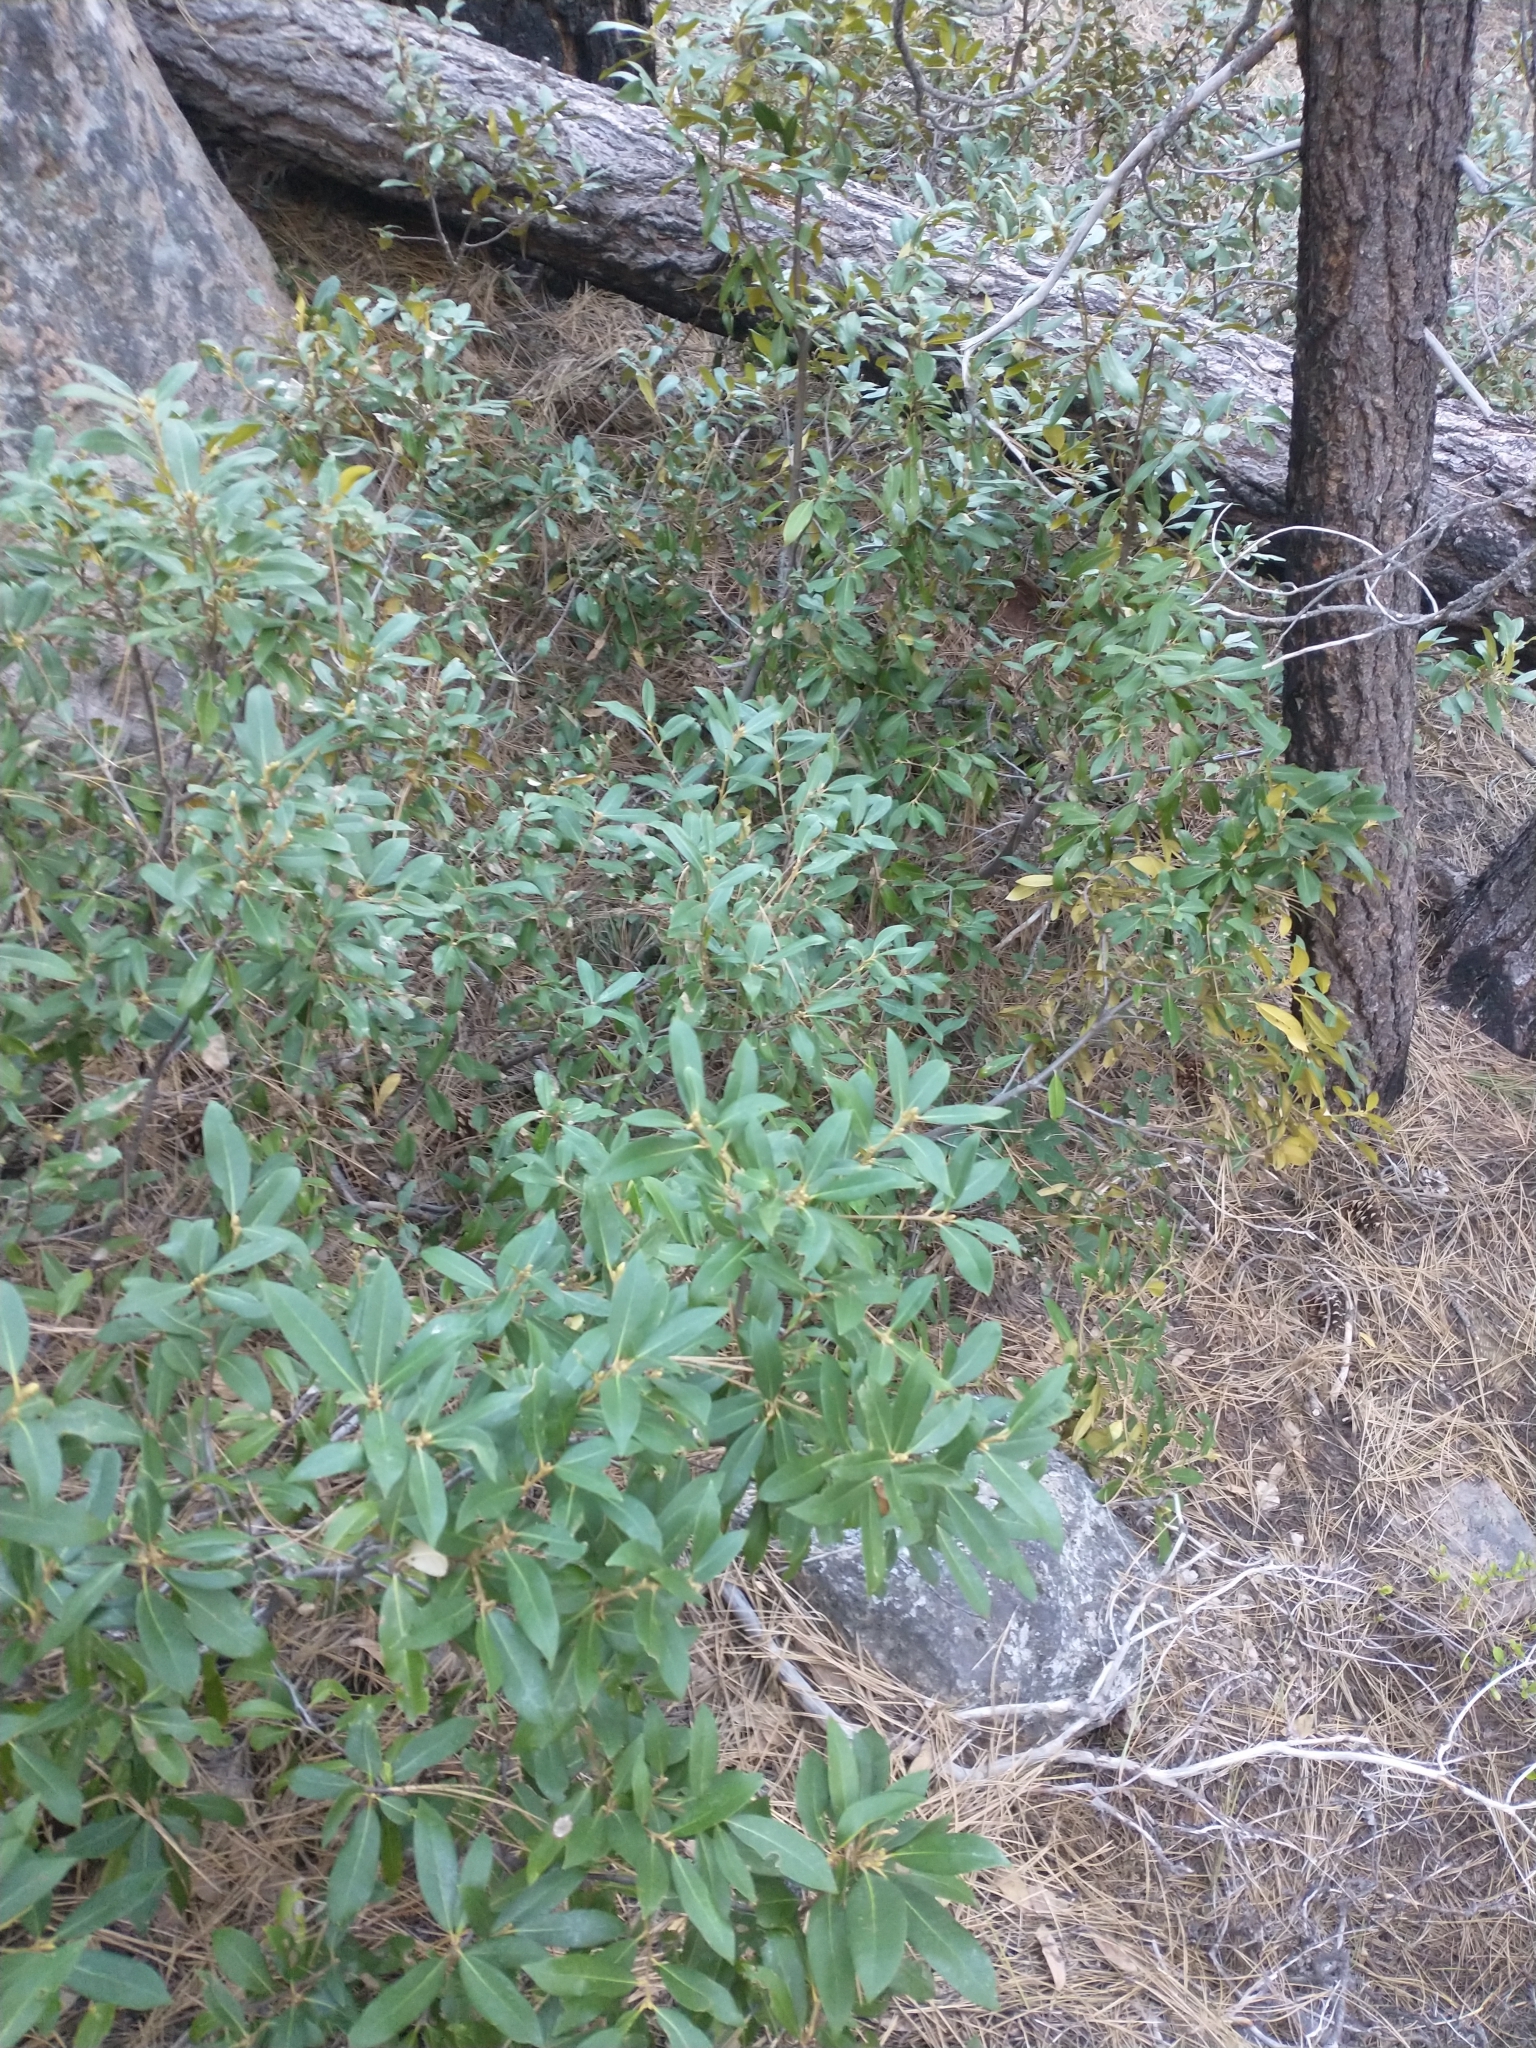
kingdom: Plantae
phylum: Tracheophyta
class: Magnoliopsida
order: Fagales
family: Fagaceae
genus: Chrysolepis
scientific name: Chrysolepis chrysophylla
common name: Giant chinquapin
